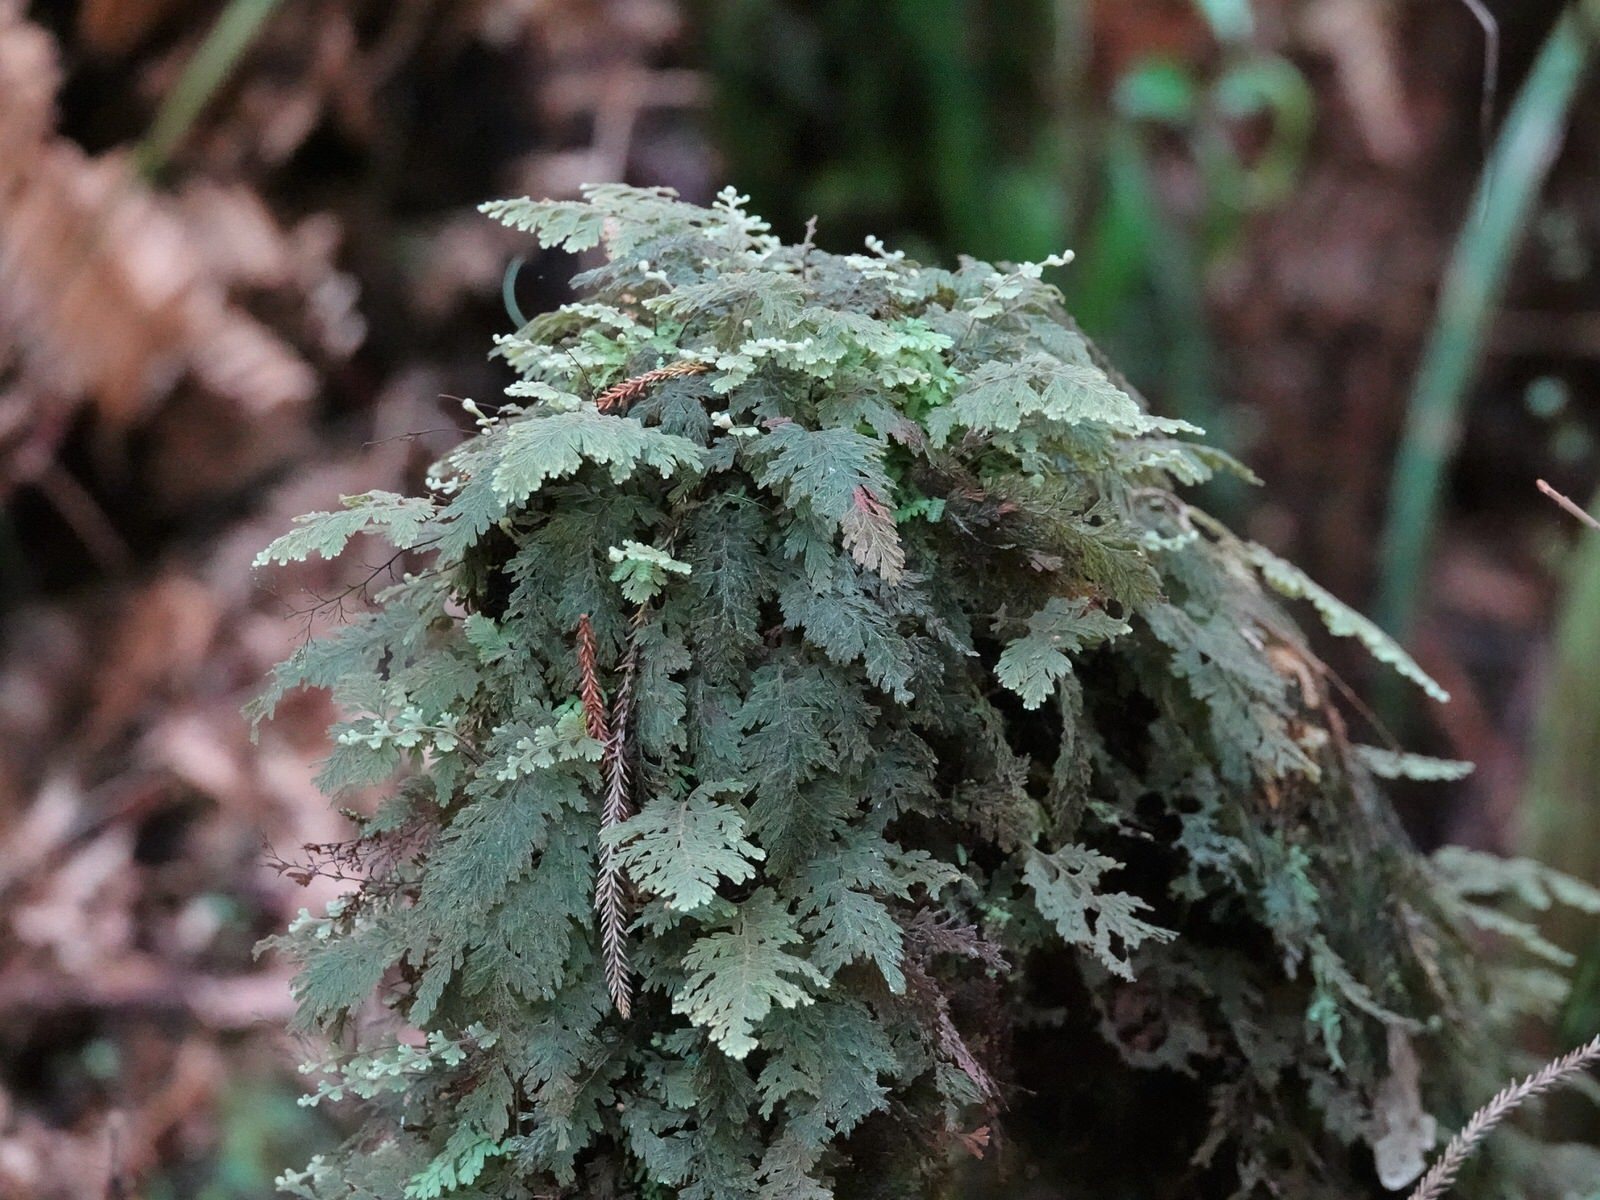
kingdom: Plantae
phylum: Tracheophyta
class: Polypodiopsida
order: Hymenophyllales
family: Hymenophyllaceae
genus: Hymenophyllum
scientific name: Hymenophyllum frankliniae
